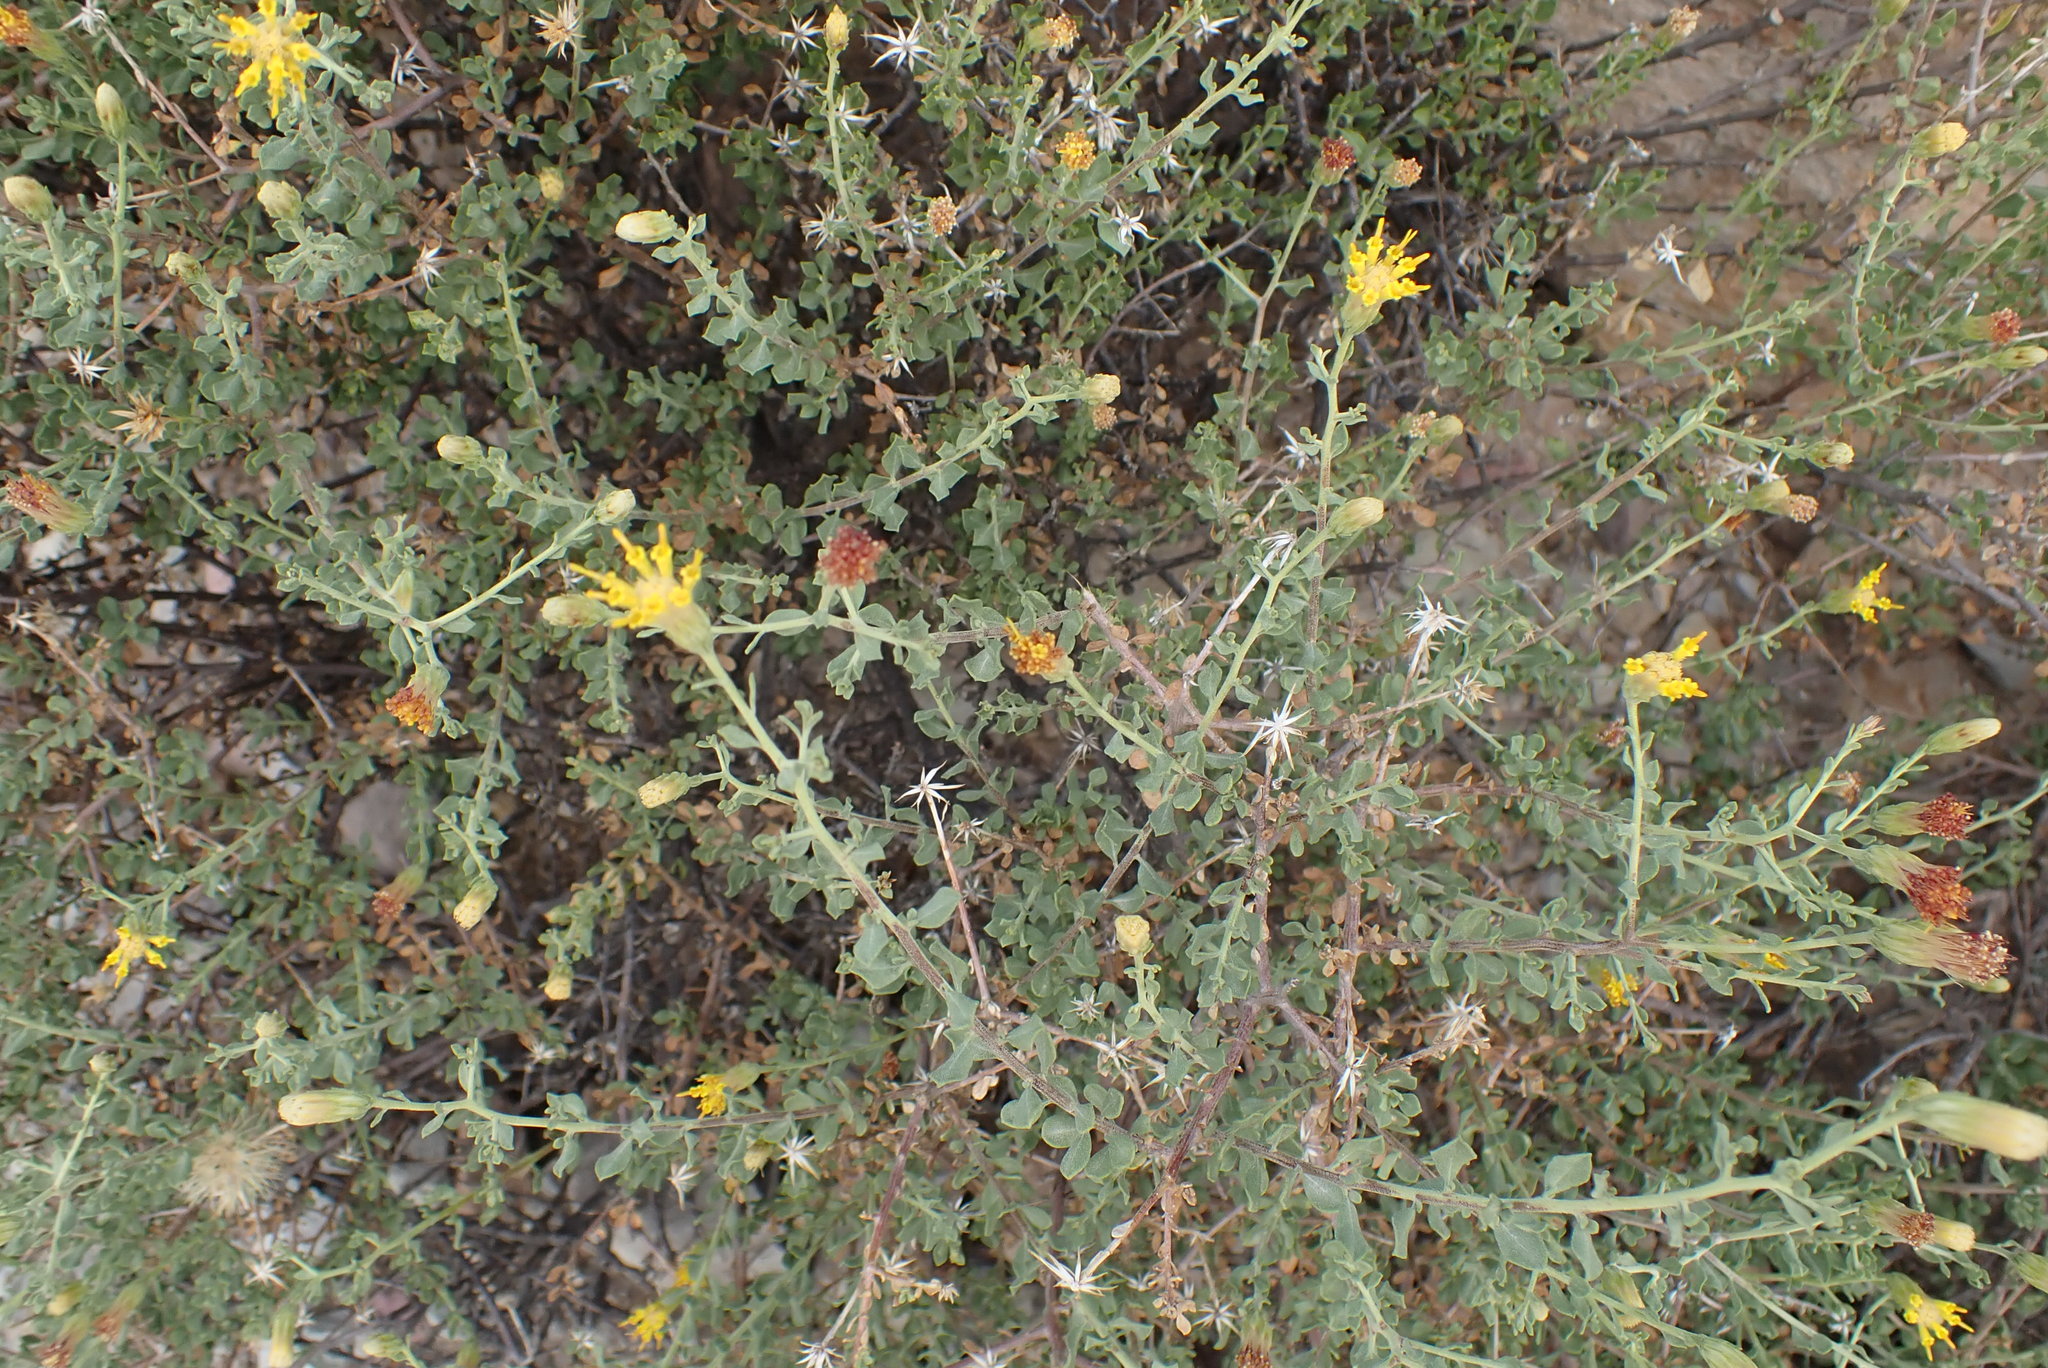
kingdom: Plantae
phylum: Tracheophyta
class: Magnoliopsida
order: Asterales
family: Asteraceae
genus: Pegolettia
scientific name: Pegolettia retrofracta
